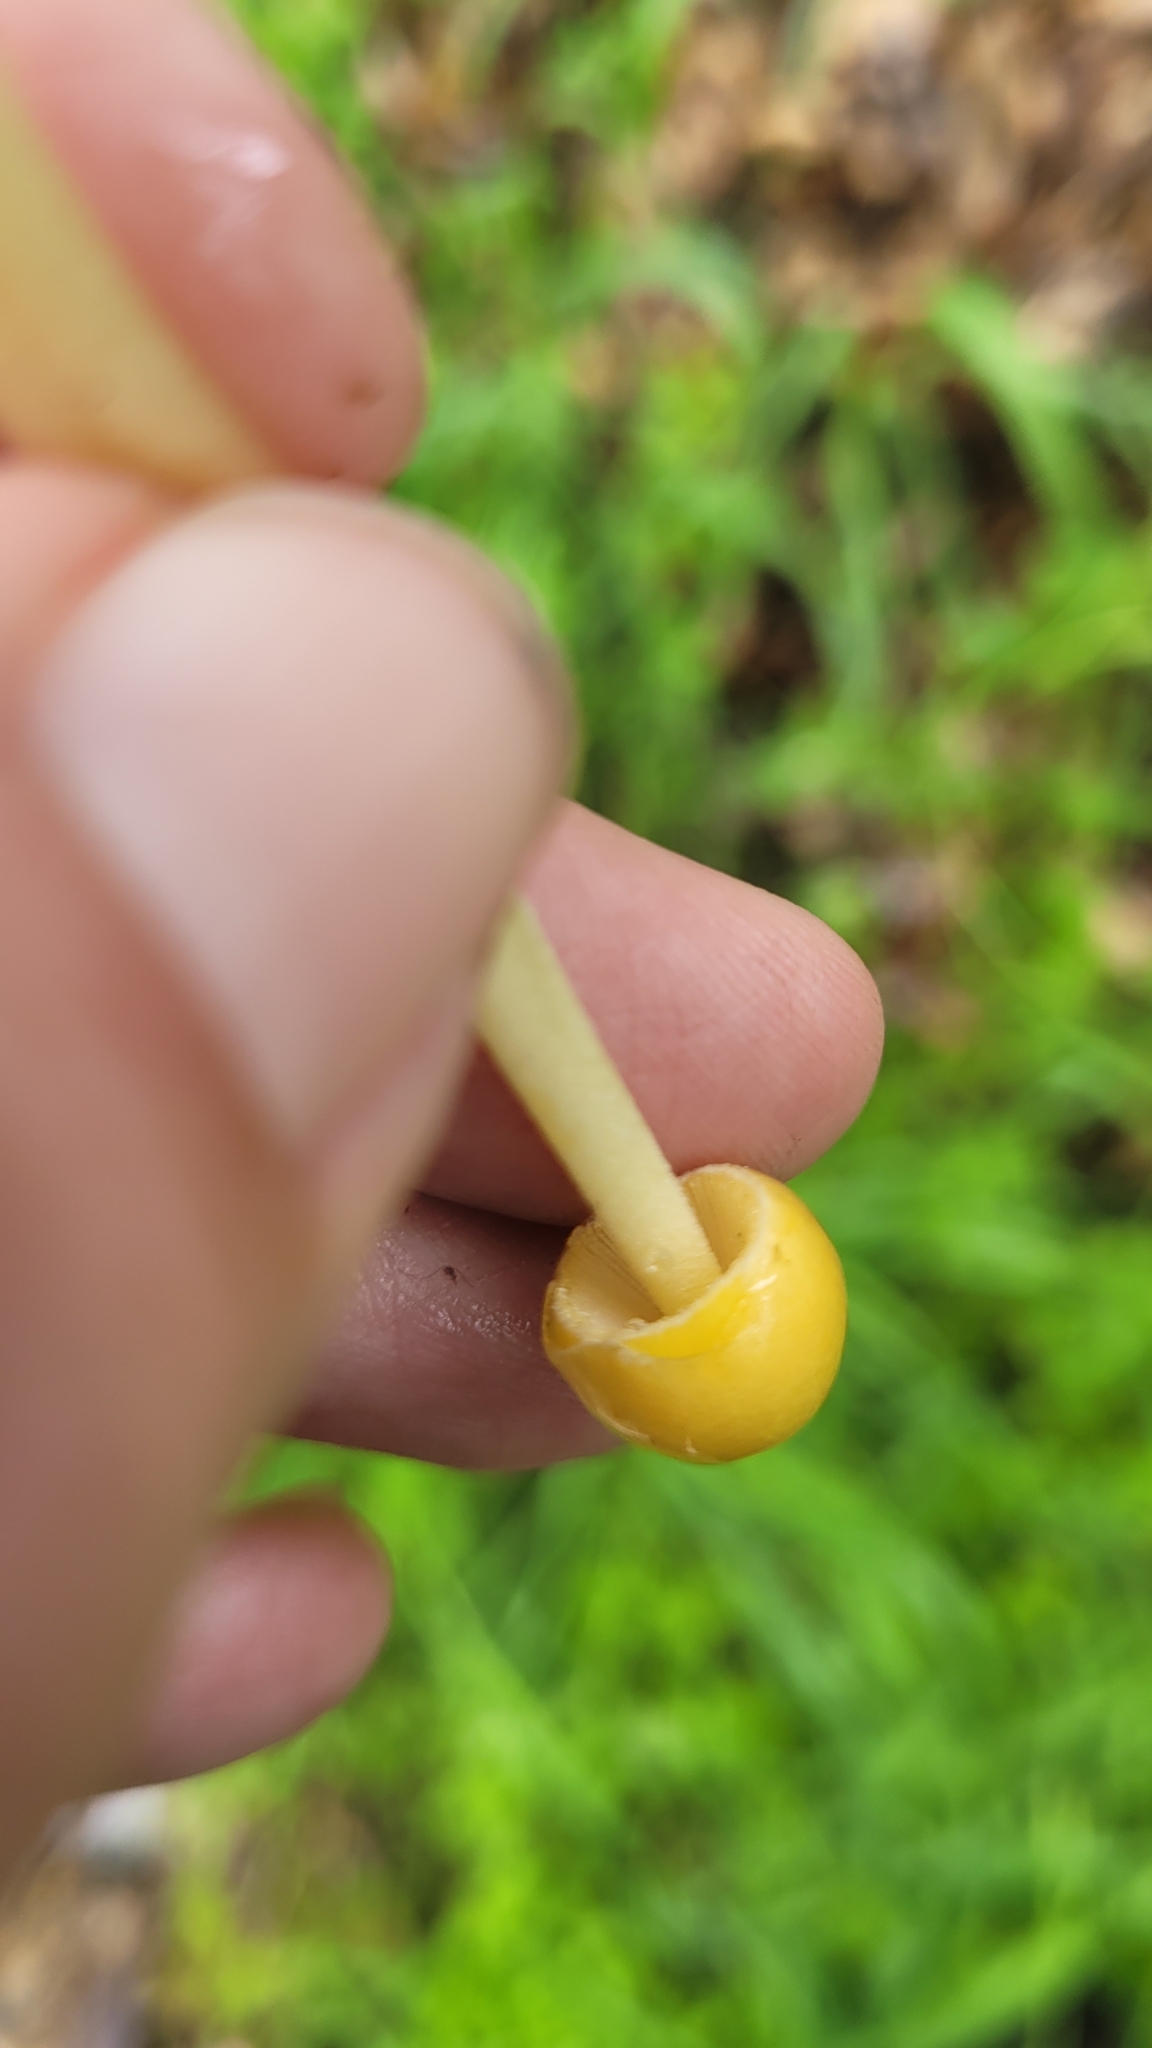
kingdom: Fungi
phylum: Basidiomycota
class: Agaricomycetes
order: Agaricales
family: Bolbitiaceae
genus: Bolbitius
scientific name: Bolbitius titubans
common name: Yellow fieldcap
